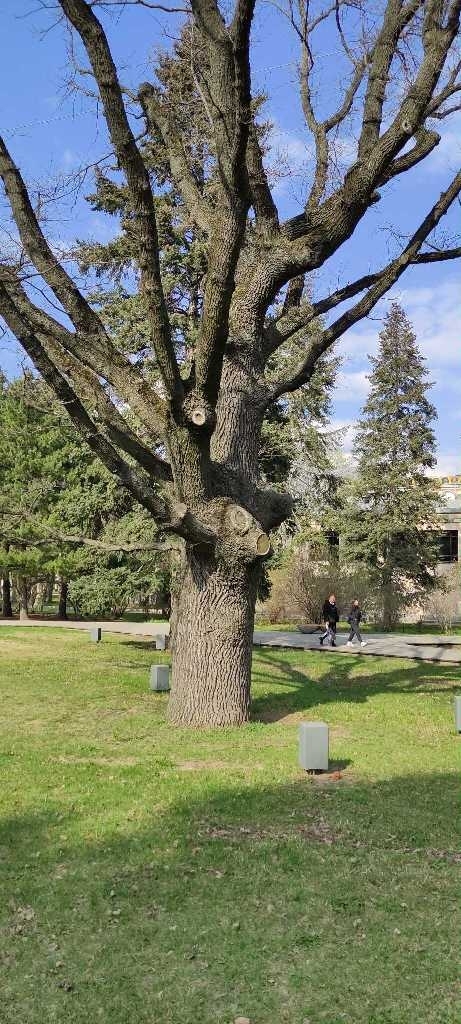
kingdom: Plantae
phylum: Tracheophyta
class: Magnoliopsida
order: Fagales
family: Fagaceae
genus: Quercus
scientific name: Quercus robur
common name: Pedunculate oak
